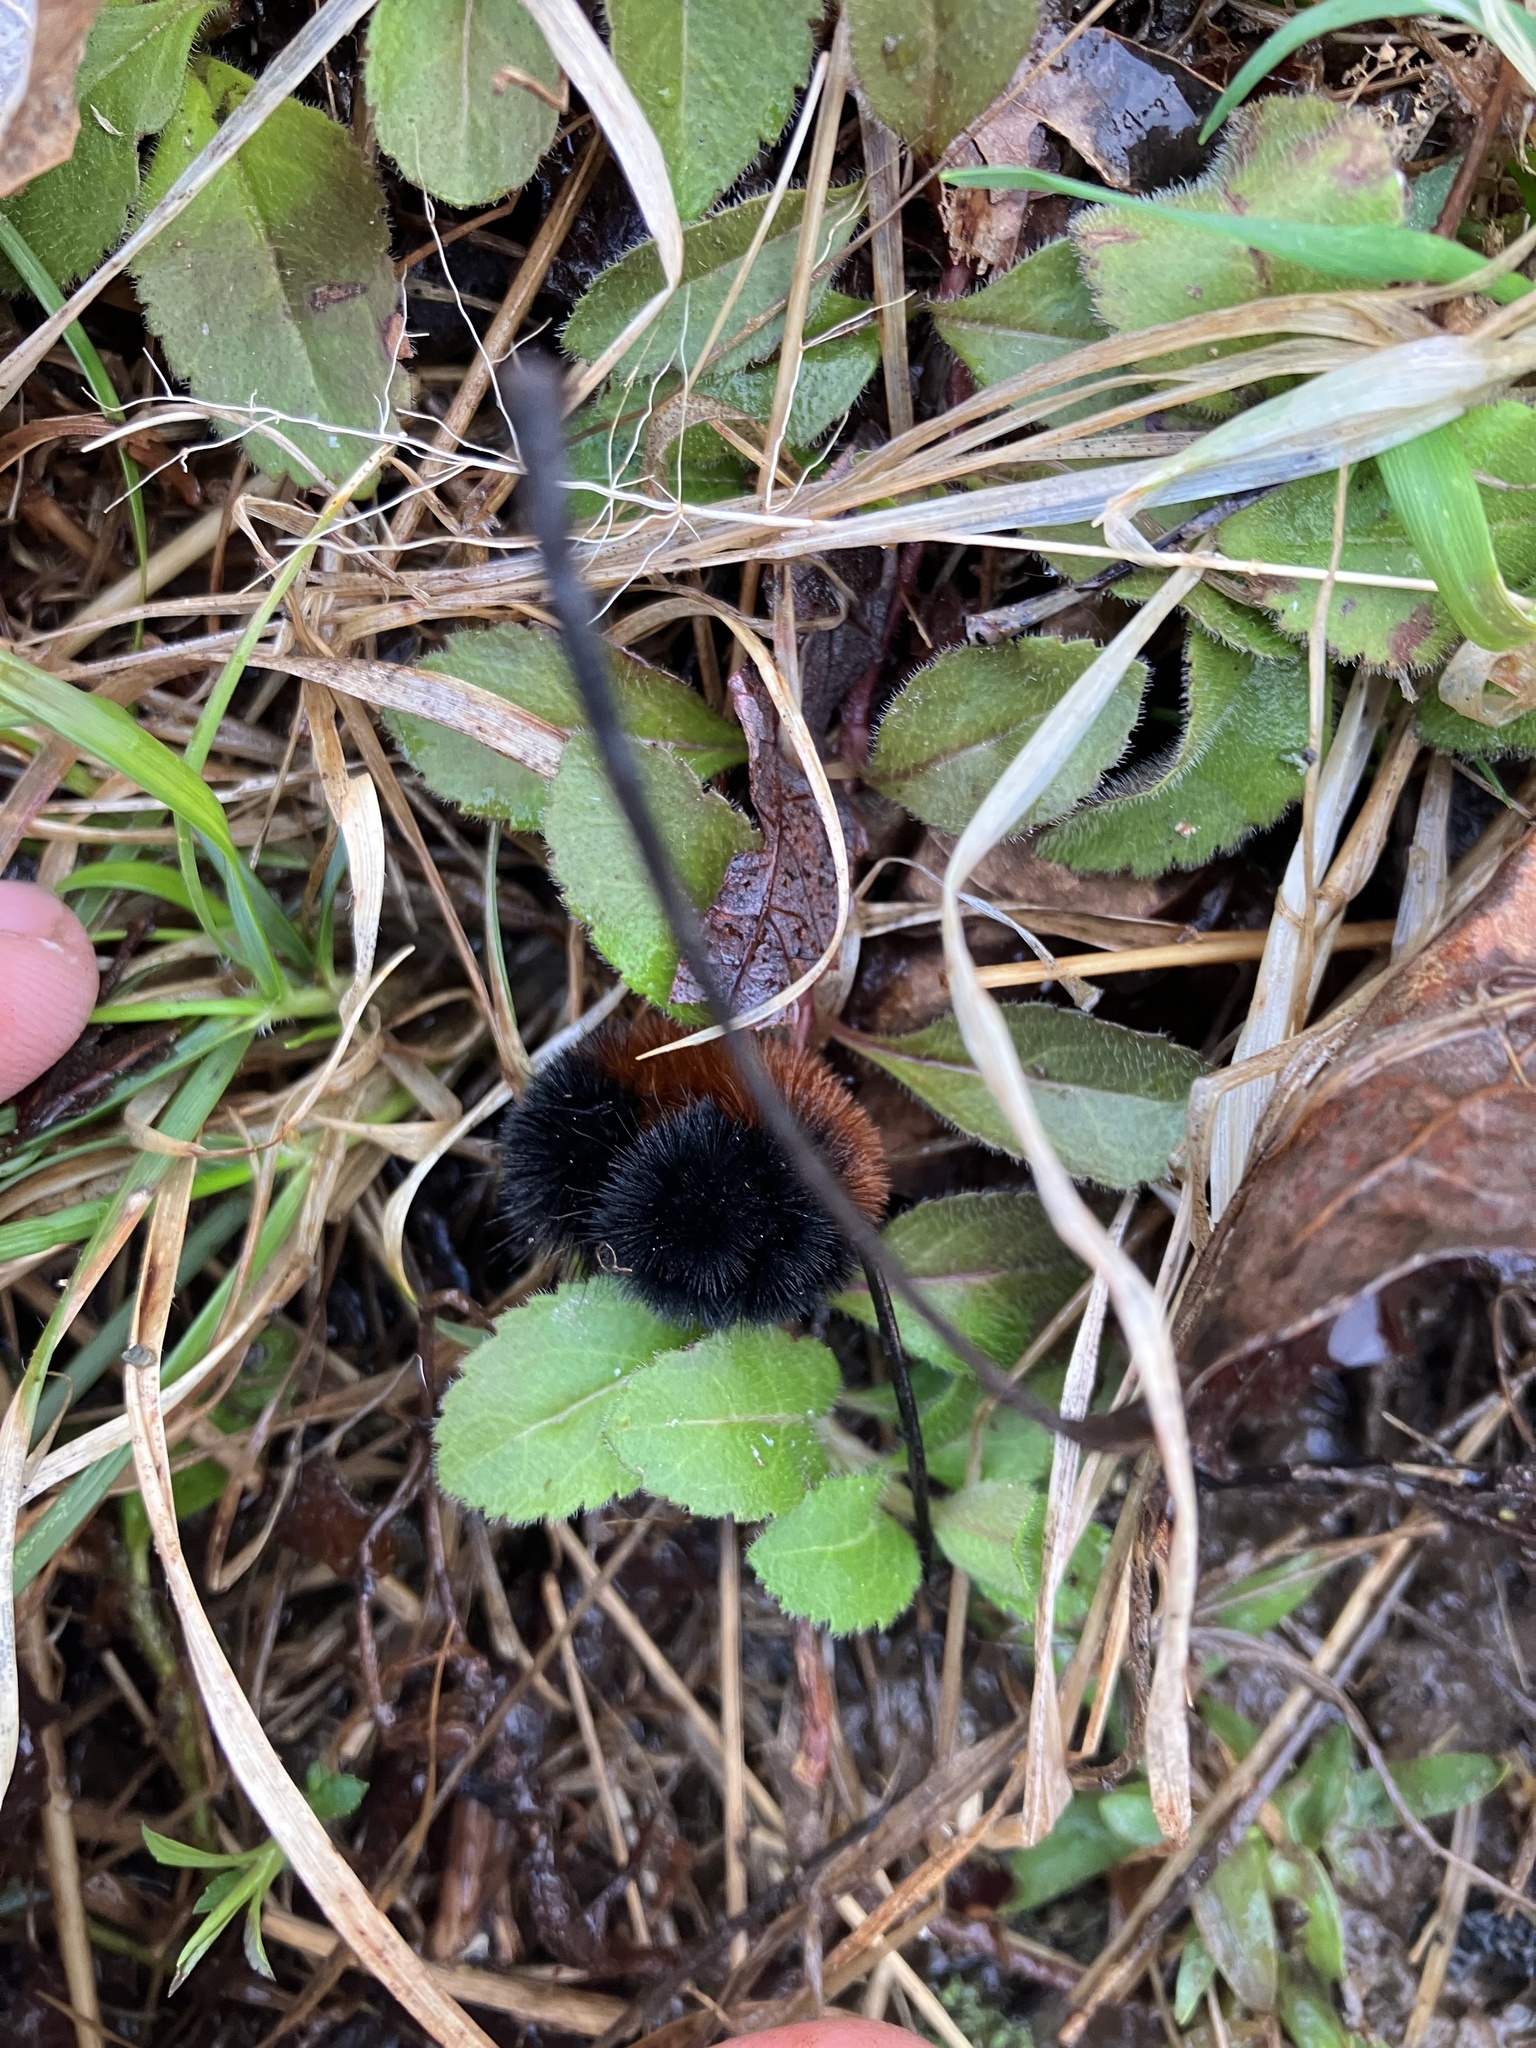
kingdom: Animalia
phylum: Arthropoda
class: Insecta
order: Lepidoptera
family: Erebidae
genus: Pyrrharctia
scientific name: Pyrrharctia isabella
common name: Isabella tiger moth
